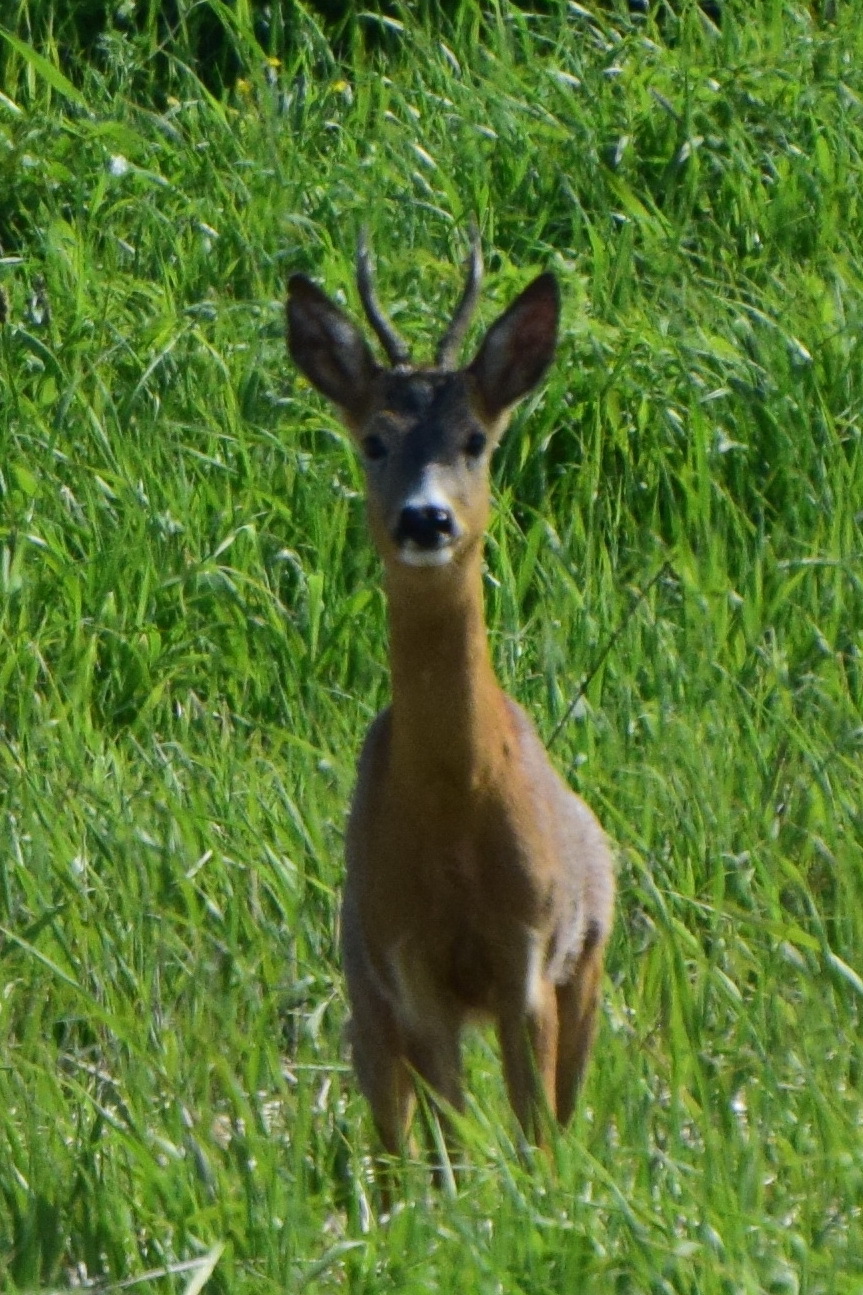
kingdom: Animalia
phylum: Chordata
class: Mammalia
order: Artiodactyla
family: Cervidae
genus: Capreolus
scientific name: Capreolus capreolus
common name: Western roe deer
